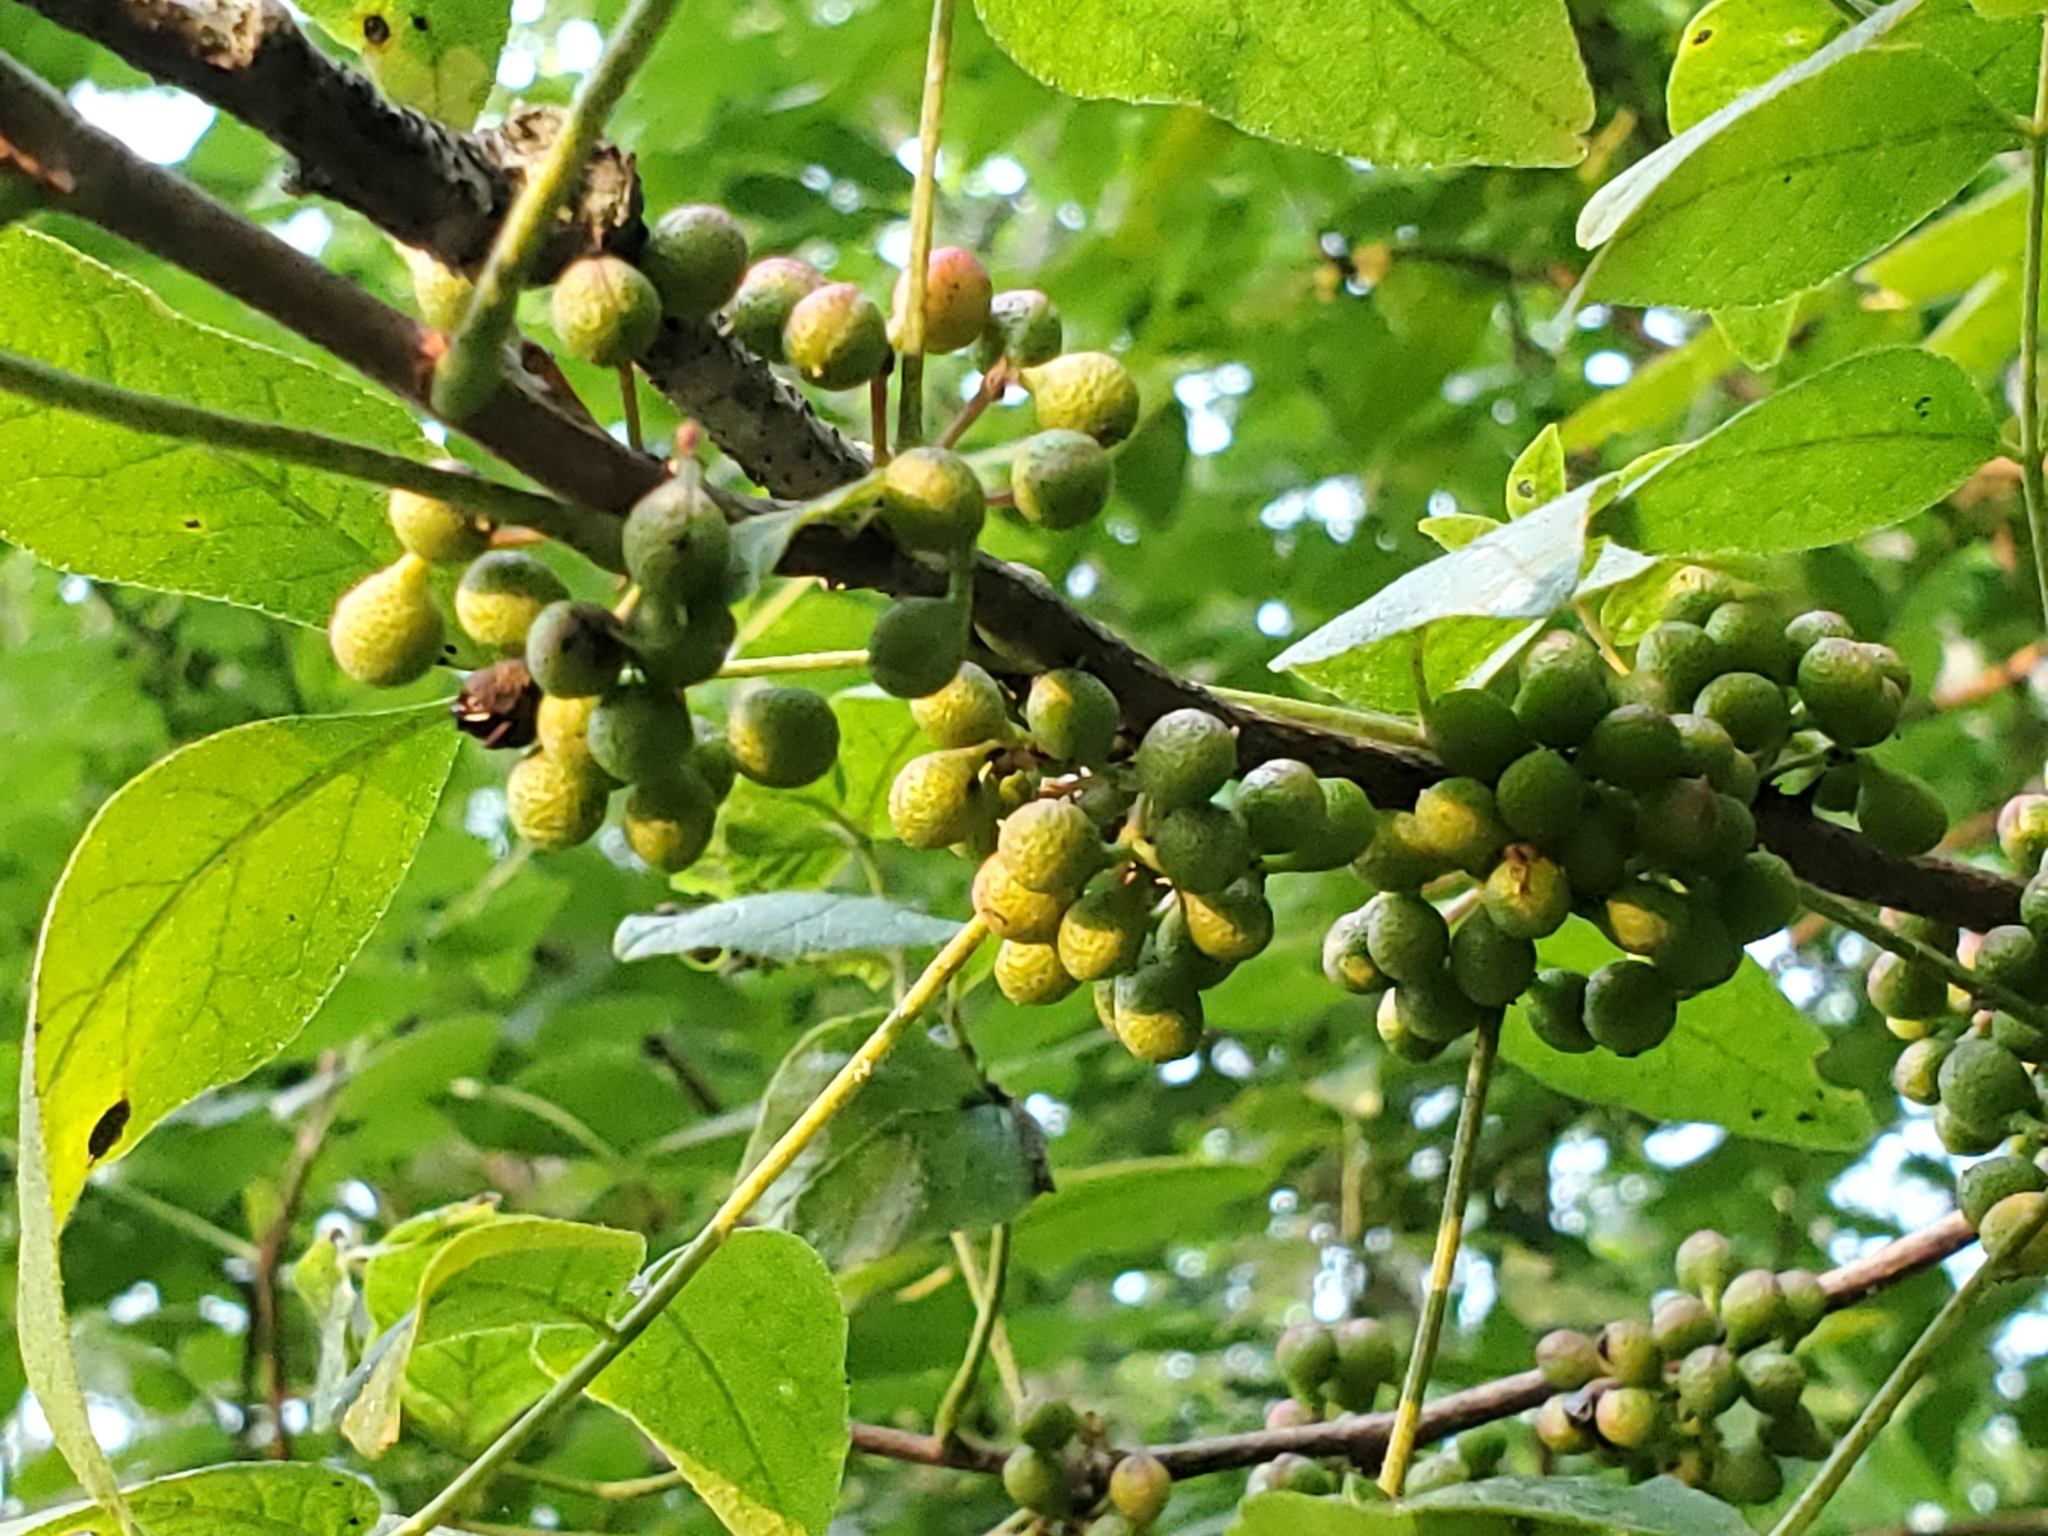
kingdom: Plantae
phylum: Tracheophyta
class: Magnoliopsida
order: Sapindales
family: Rutaceae
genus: Zanthoxylum
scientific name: Zanthoxylum americanum
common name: Northern prickly-ash
